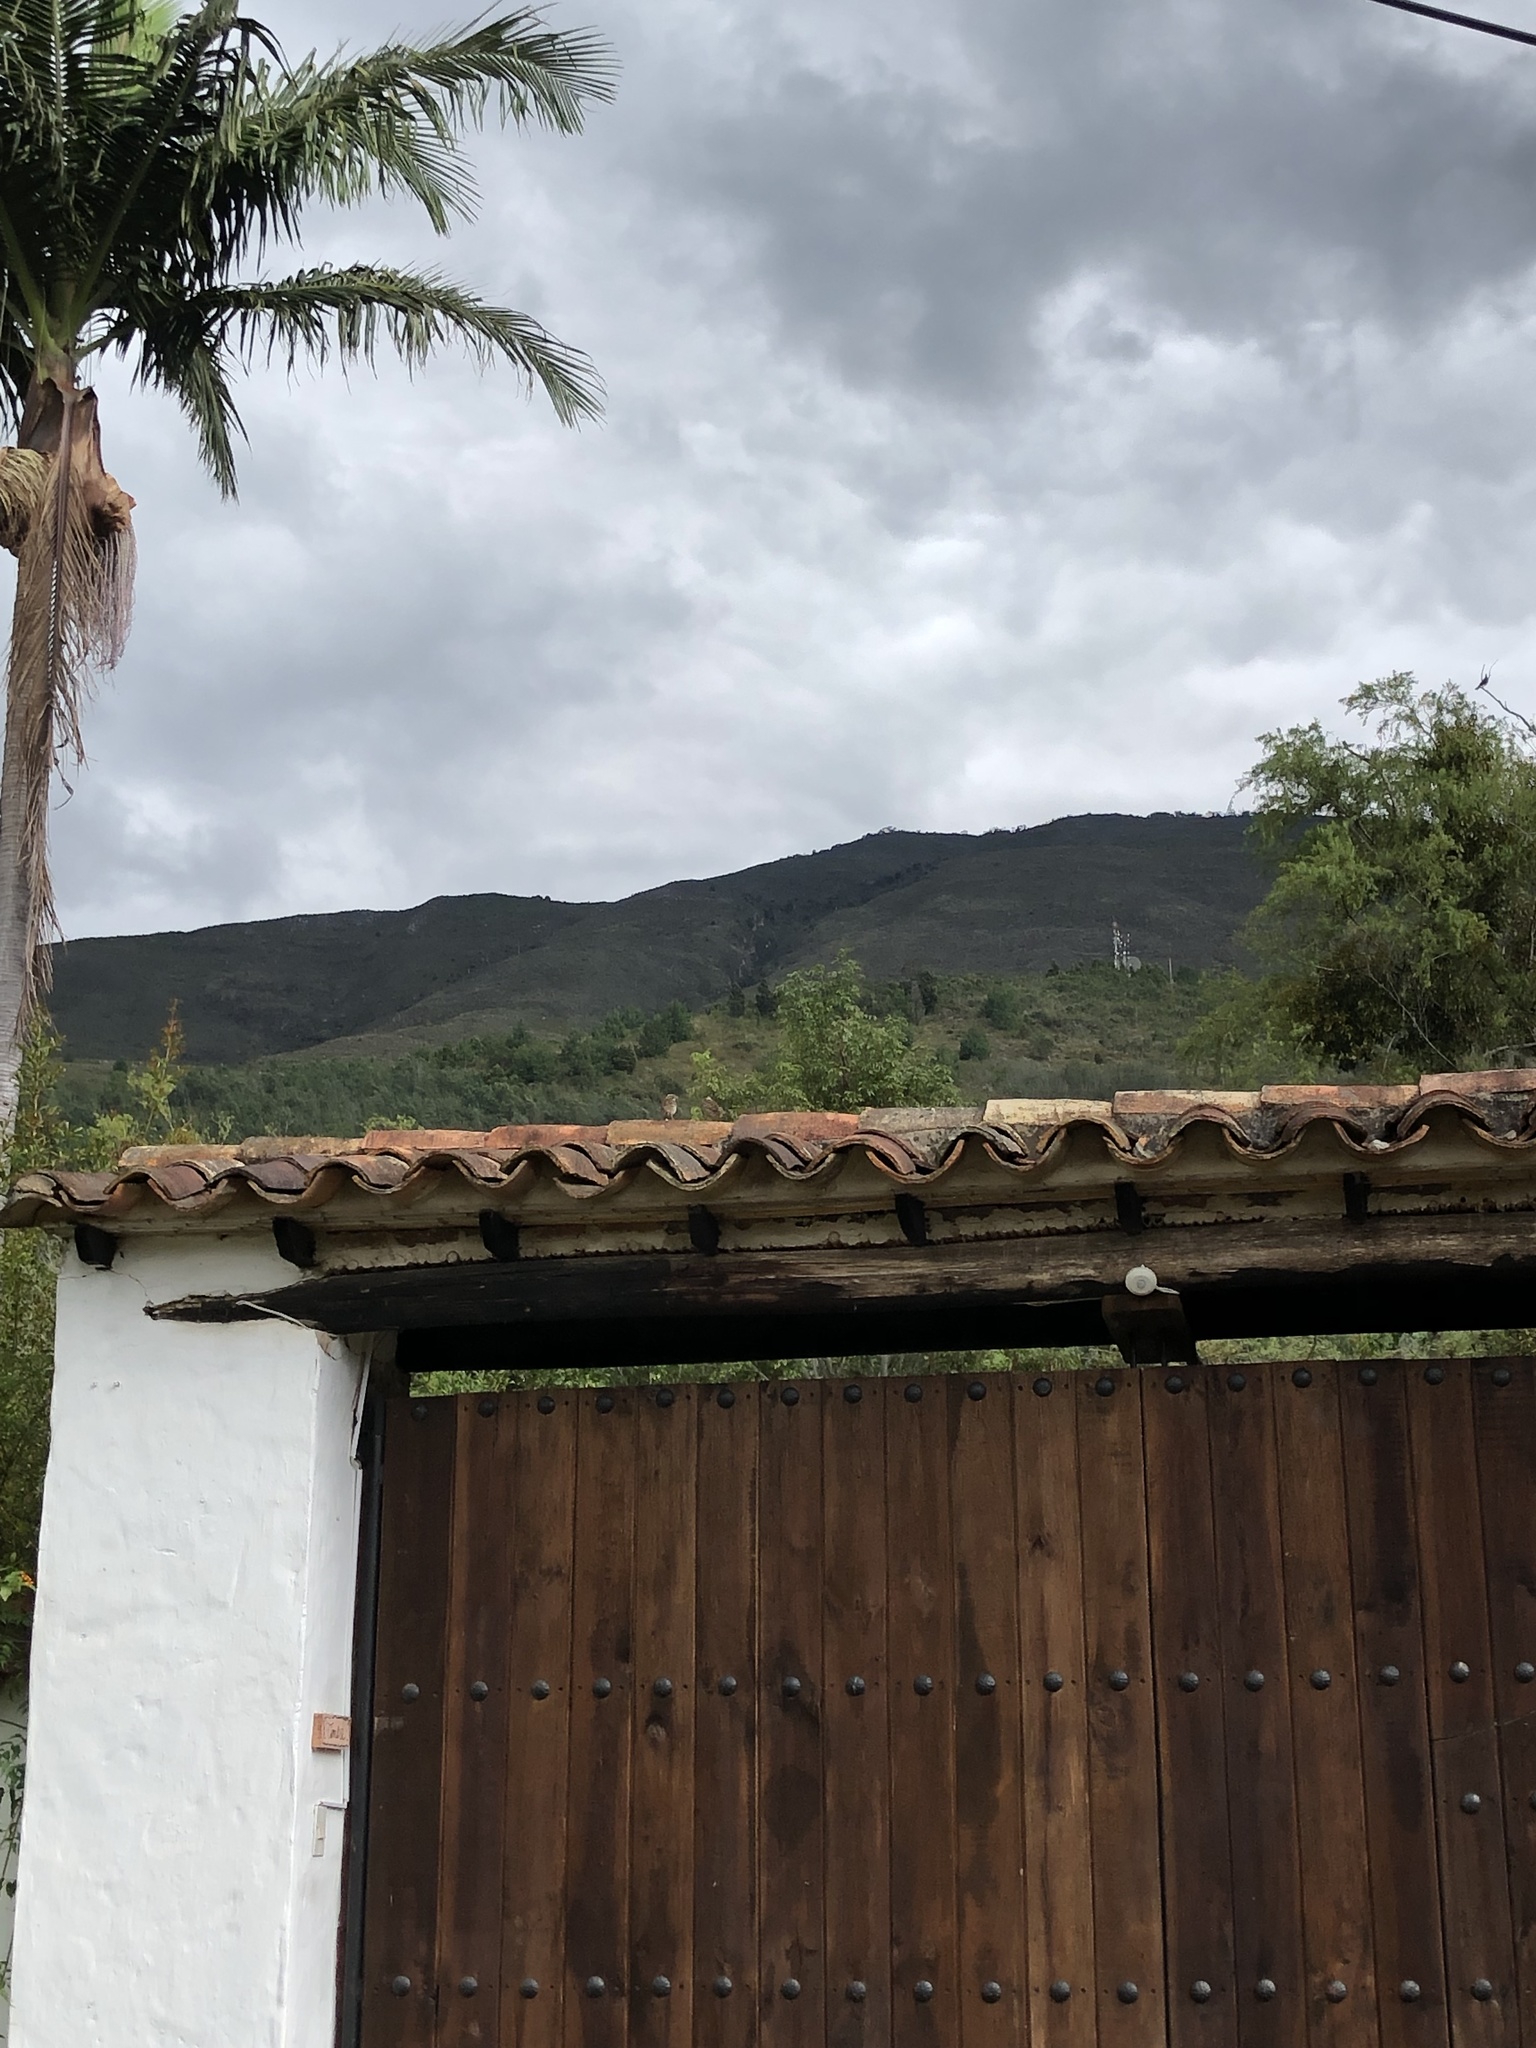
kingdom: Animalia
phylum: Chordata
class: Aves
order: Passeriformes
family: Passerellidae
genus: Zonotrichia
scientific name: Zonotrichia capensis
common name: Rufous-collared sparrow
